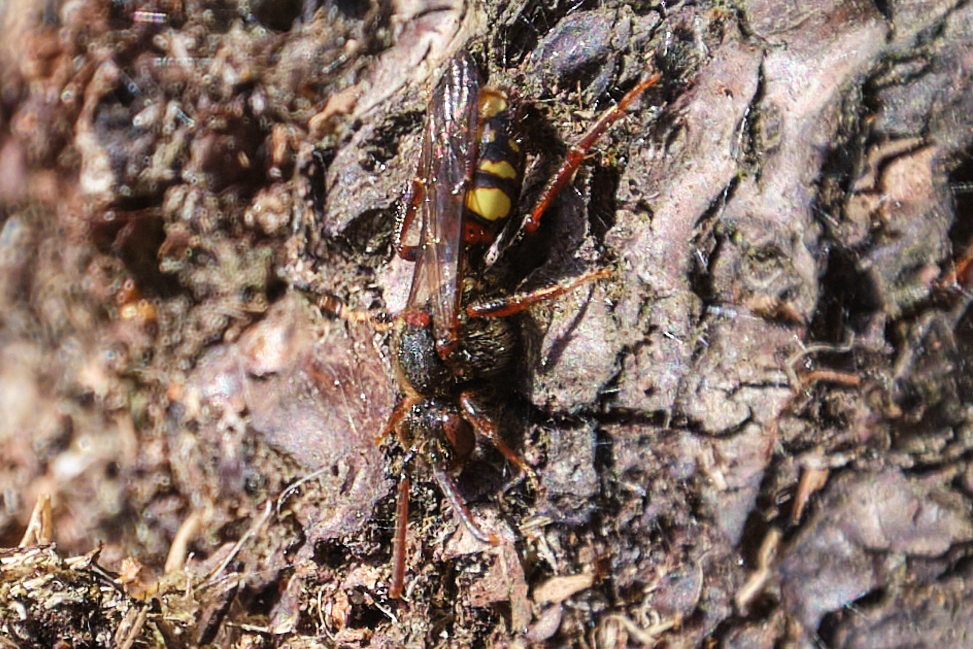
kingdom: Animalia
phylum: Arthropoda
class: Insecta
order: Hymenoptera
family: Apidae
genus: Nomada
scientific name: Nomada leucophthalma
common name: Early nomad bee
